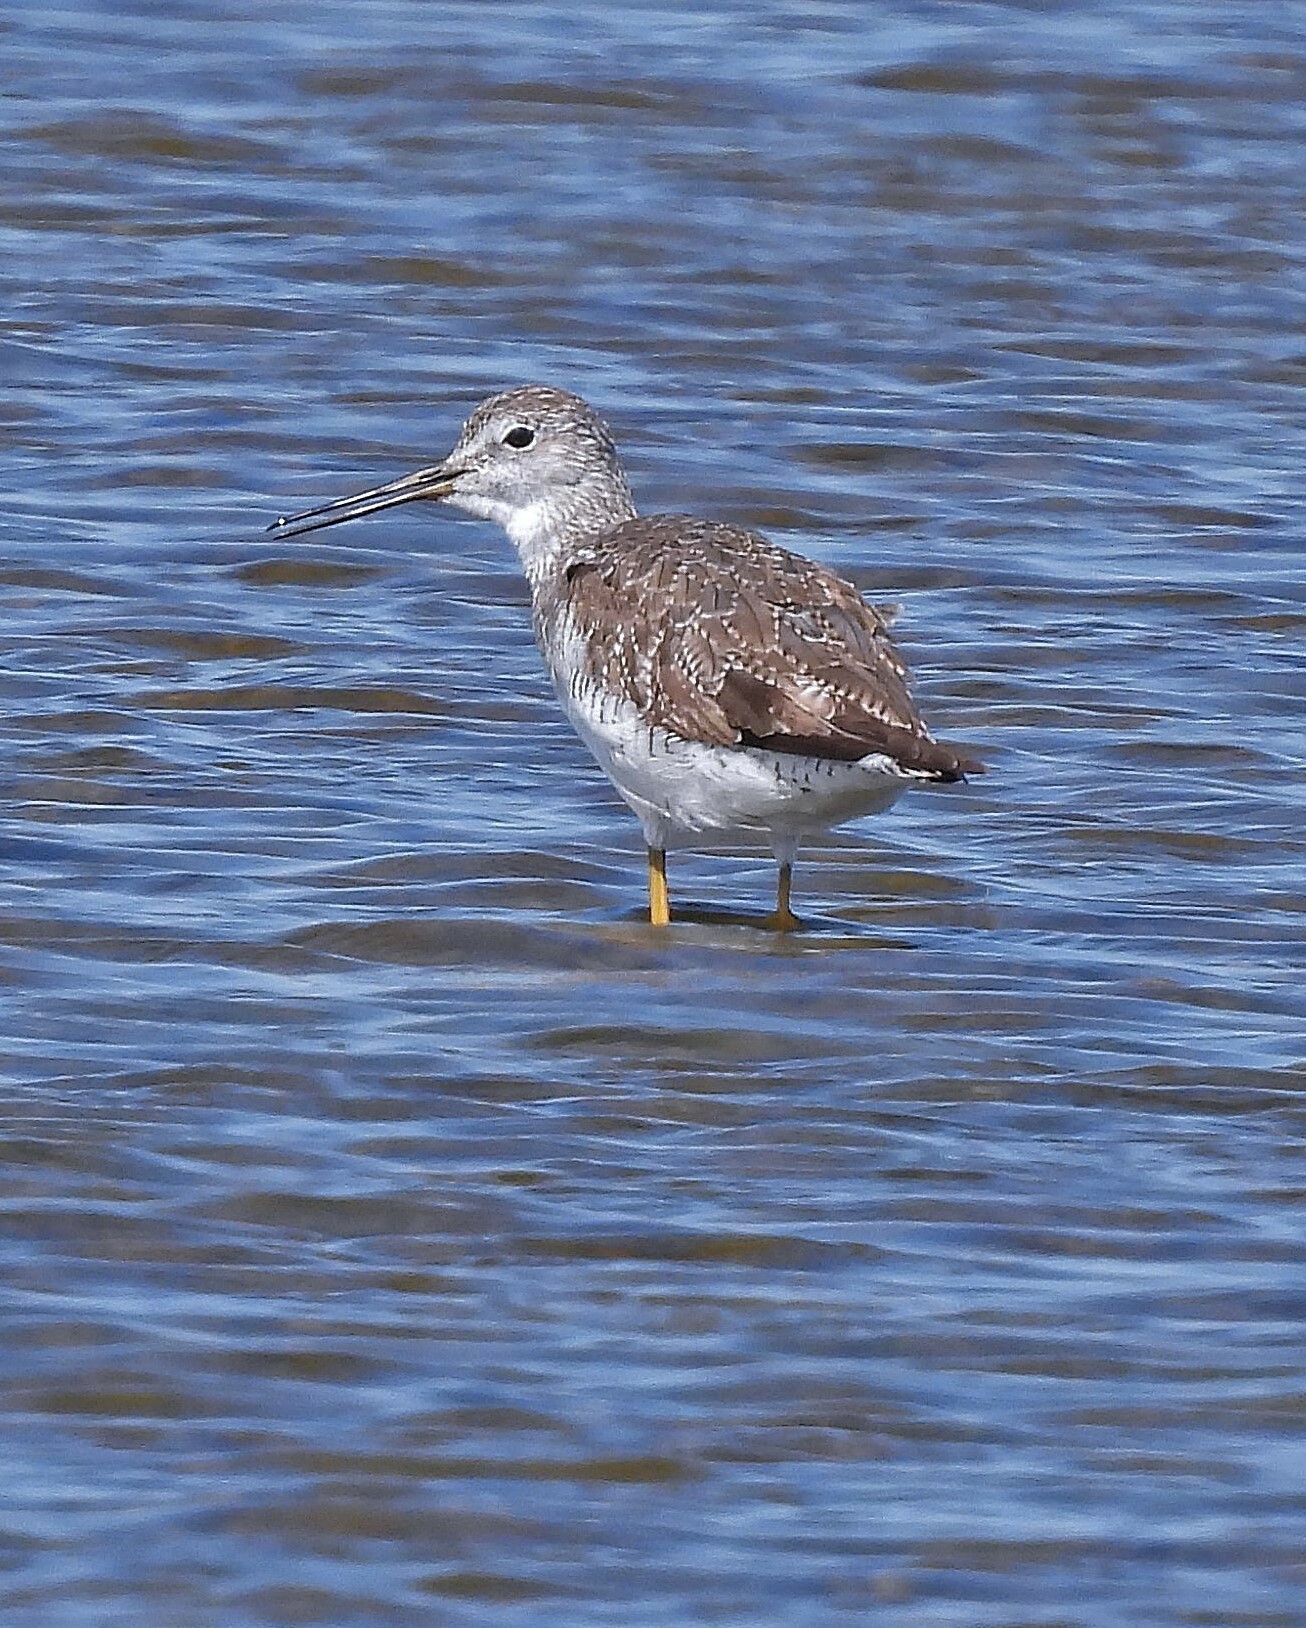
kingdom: Animalia
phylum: Chordata
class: Aves
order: Charadriiformes
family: Scolopacidae
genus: Tringa
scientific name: Tringa melanoleuca
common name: Greater yellowlegs
